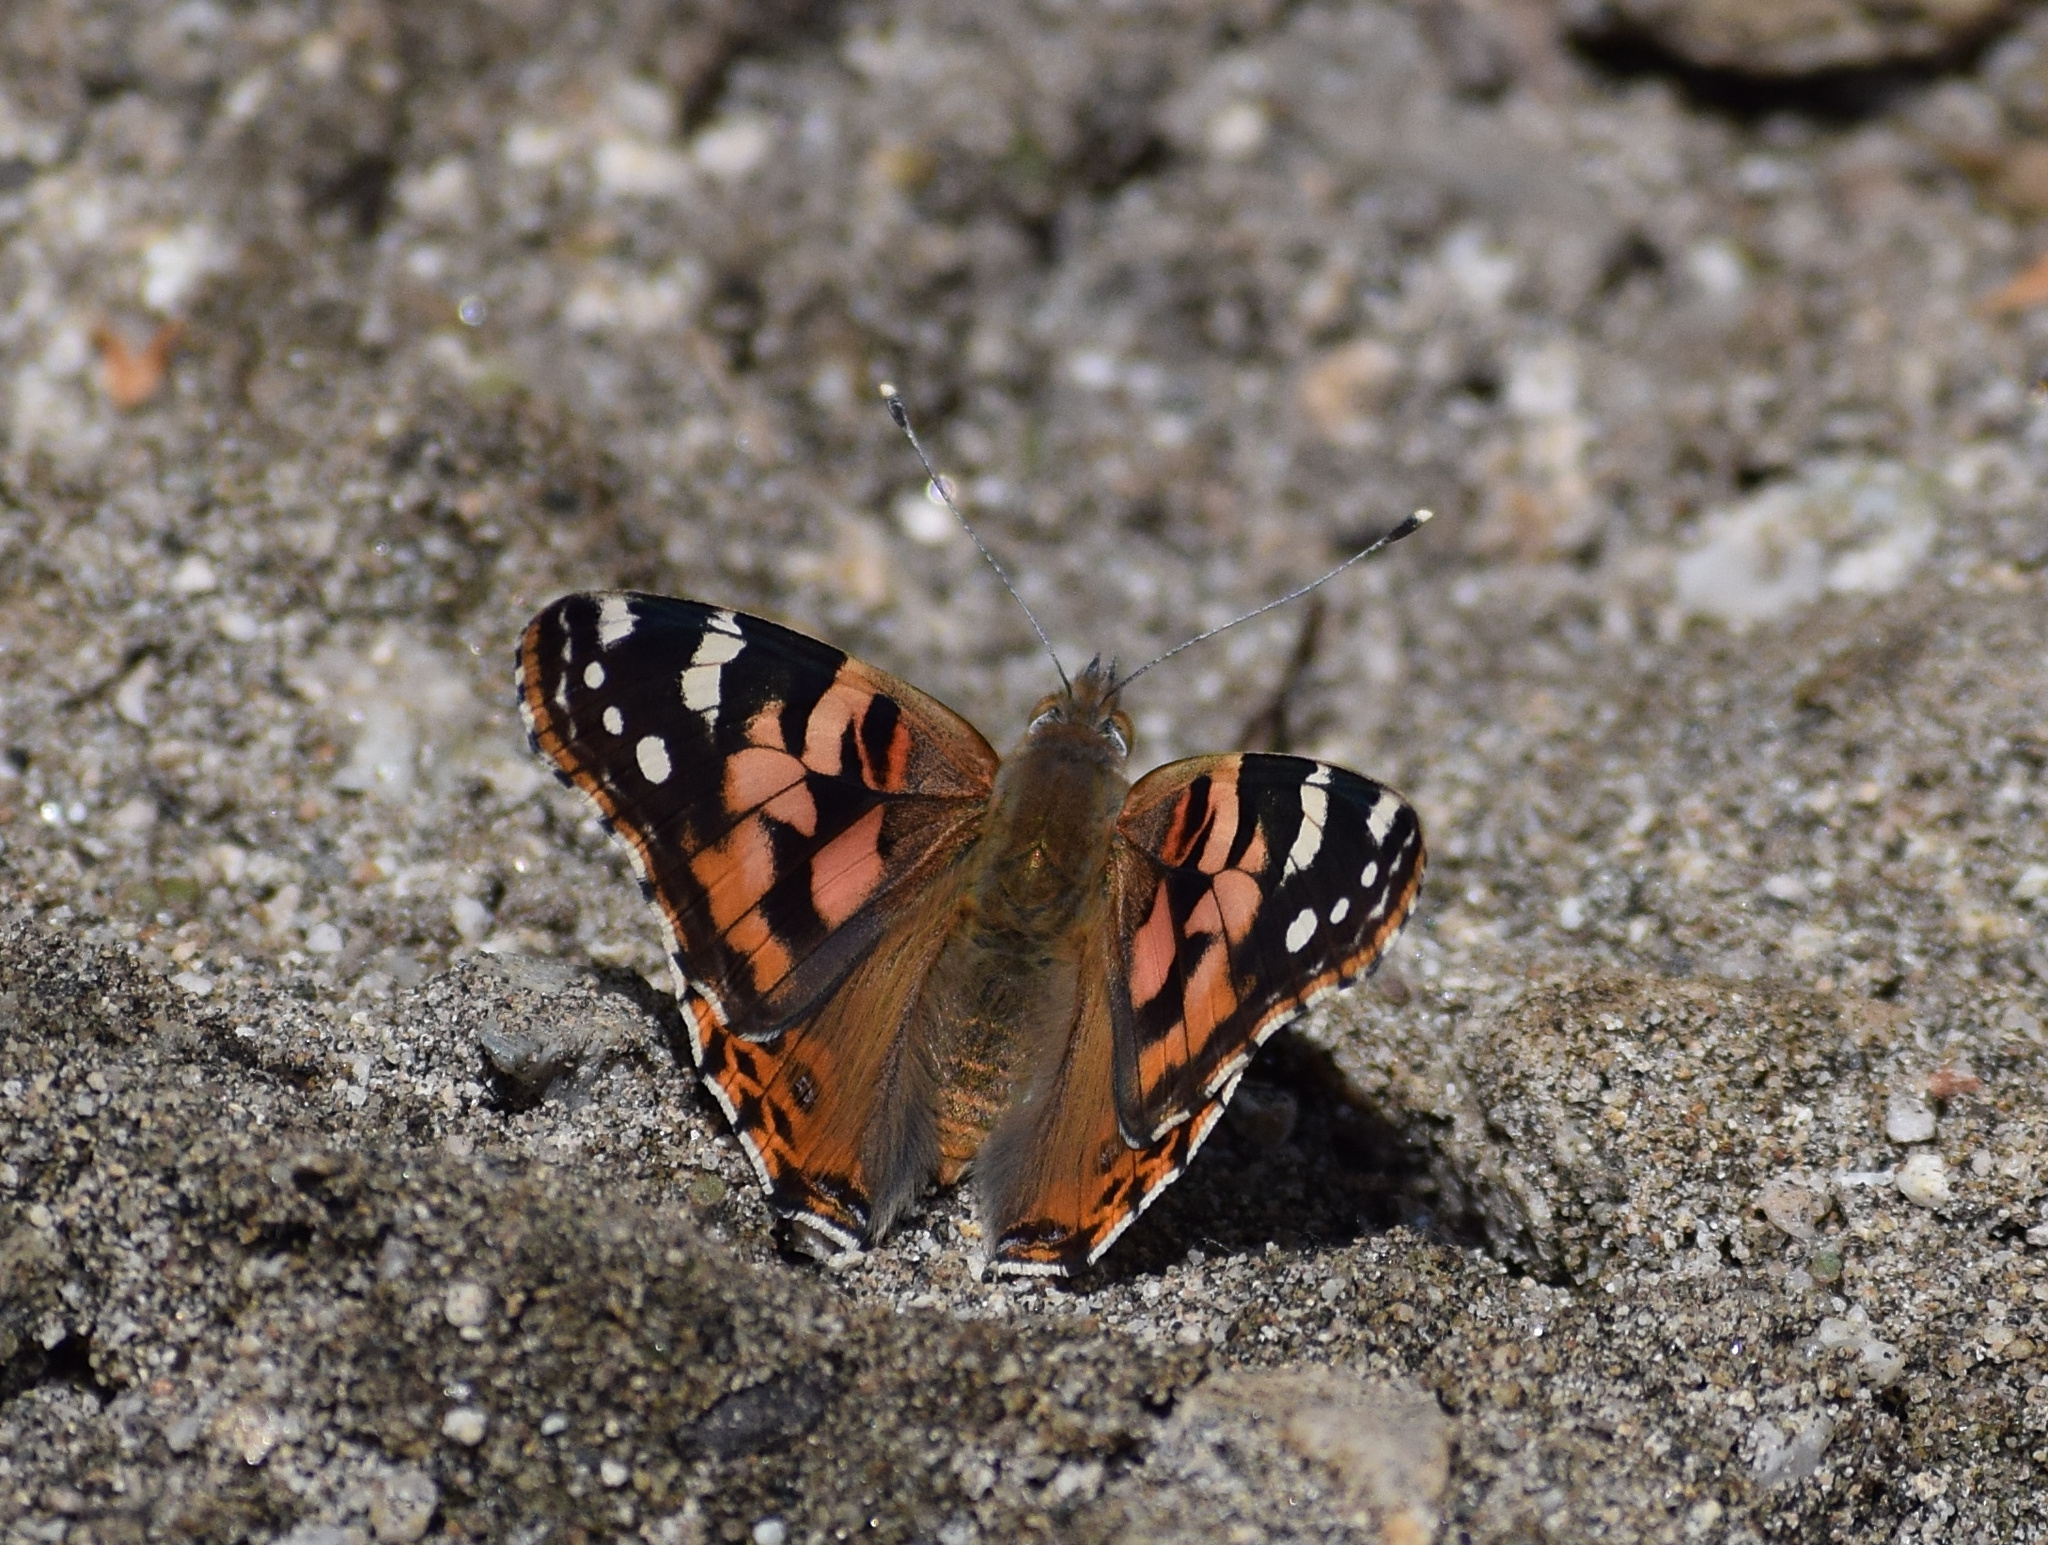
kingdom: Animalia
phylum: Arthropoda
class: Insecta
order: Lepidoptera
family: Nymphalidae
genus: Vanessa
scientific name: Vanessa cardui
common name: Painted lady
